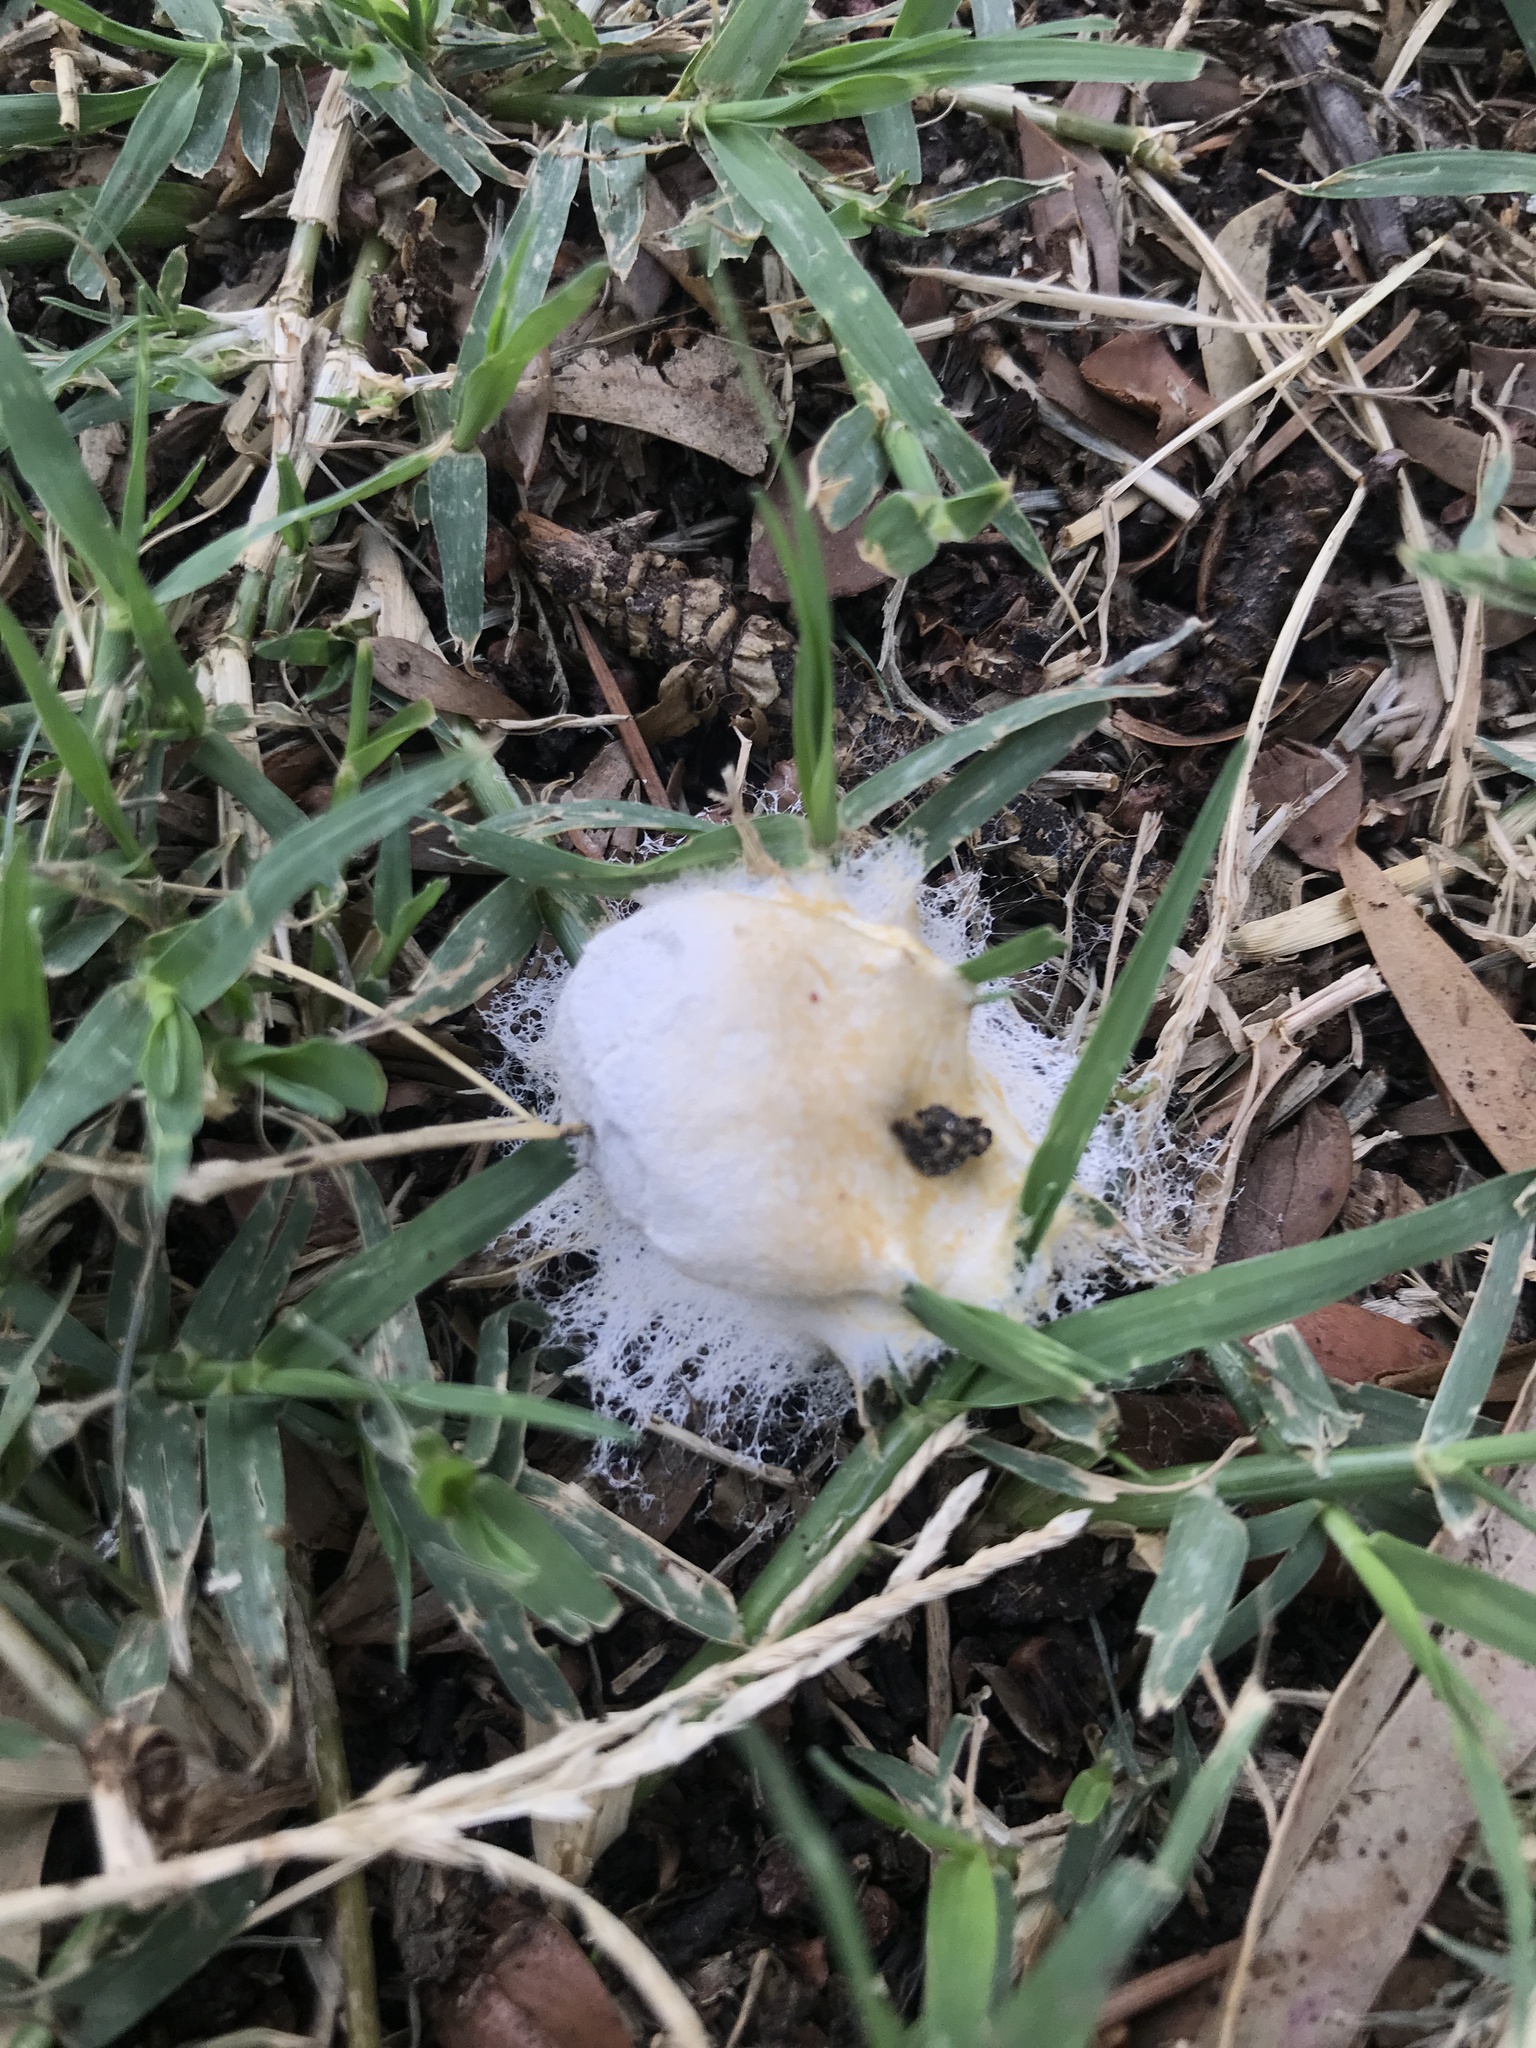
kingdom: Protozoa
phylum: Mycetozoa
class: Myxomycetes
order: Physarales
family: Physaraceae
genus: Fuligo
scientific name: Fuligo septica
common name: Dog vomit slime mold
